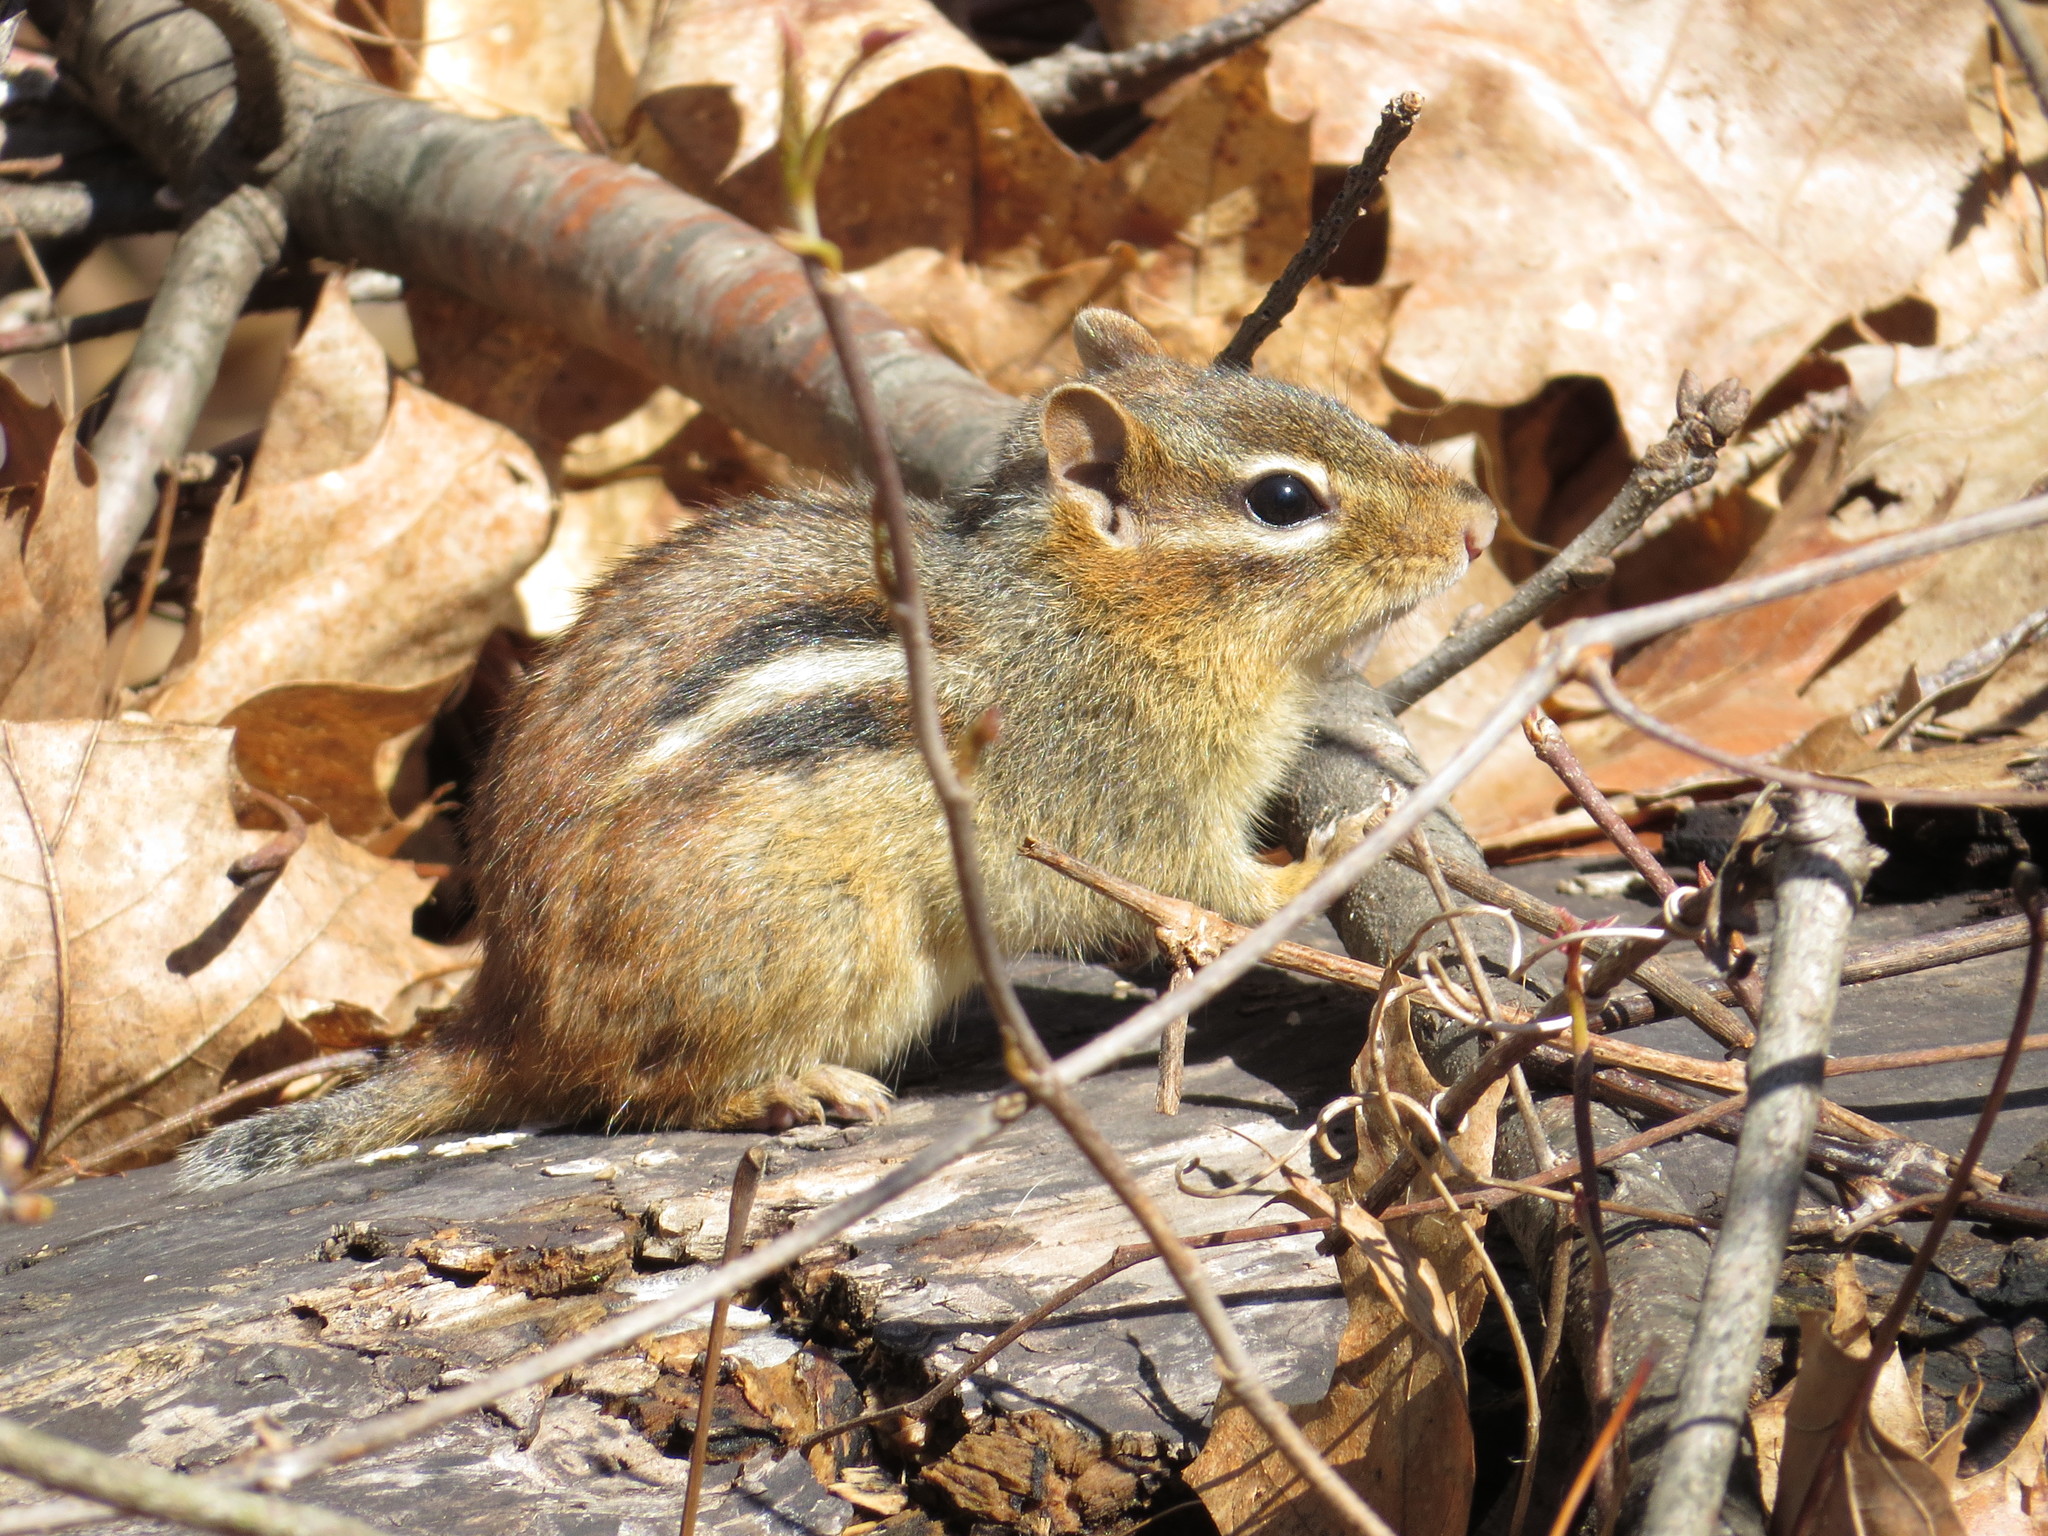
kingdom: Animalia
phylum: Chordata
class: Mammalia
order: Rodentia
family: Sciuridae
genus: Tamias
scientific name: Tamias striatus
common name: Eastern chipmunk
